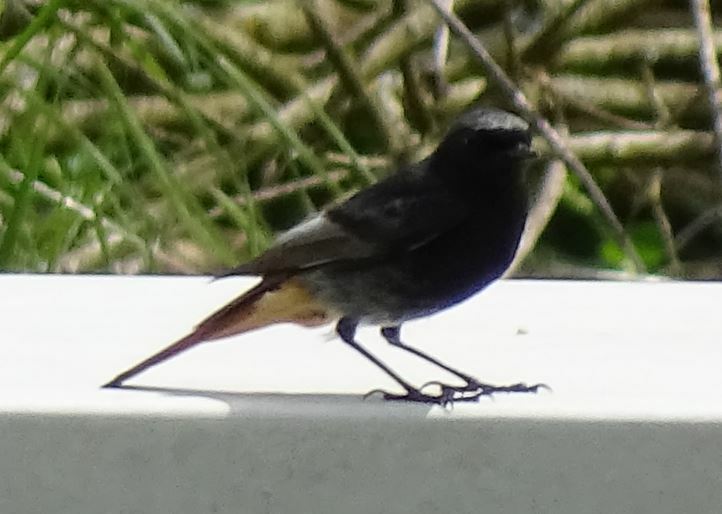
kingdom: Animalia
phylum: Chordata
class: Aves
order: Passeriformes
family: Muscicapidae
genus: Phoenicurus
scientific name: Phoenicurus ochruros
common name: Black redstart
